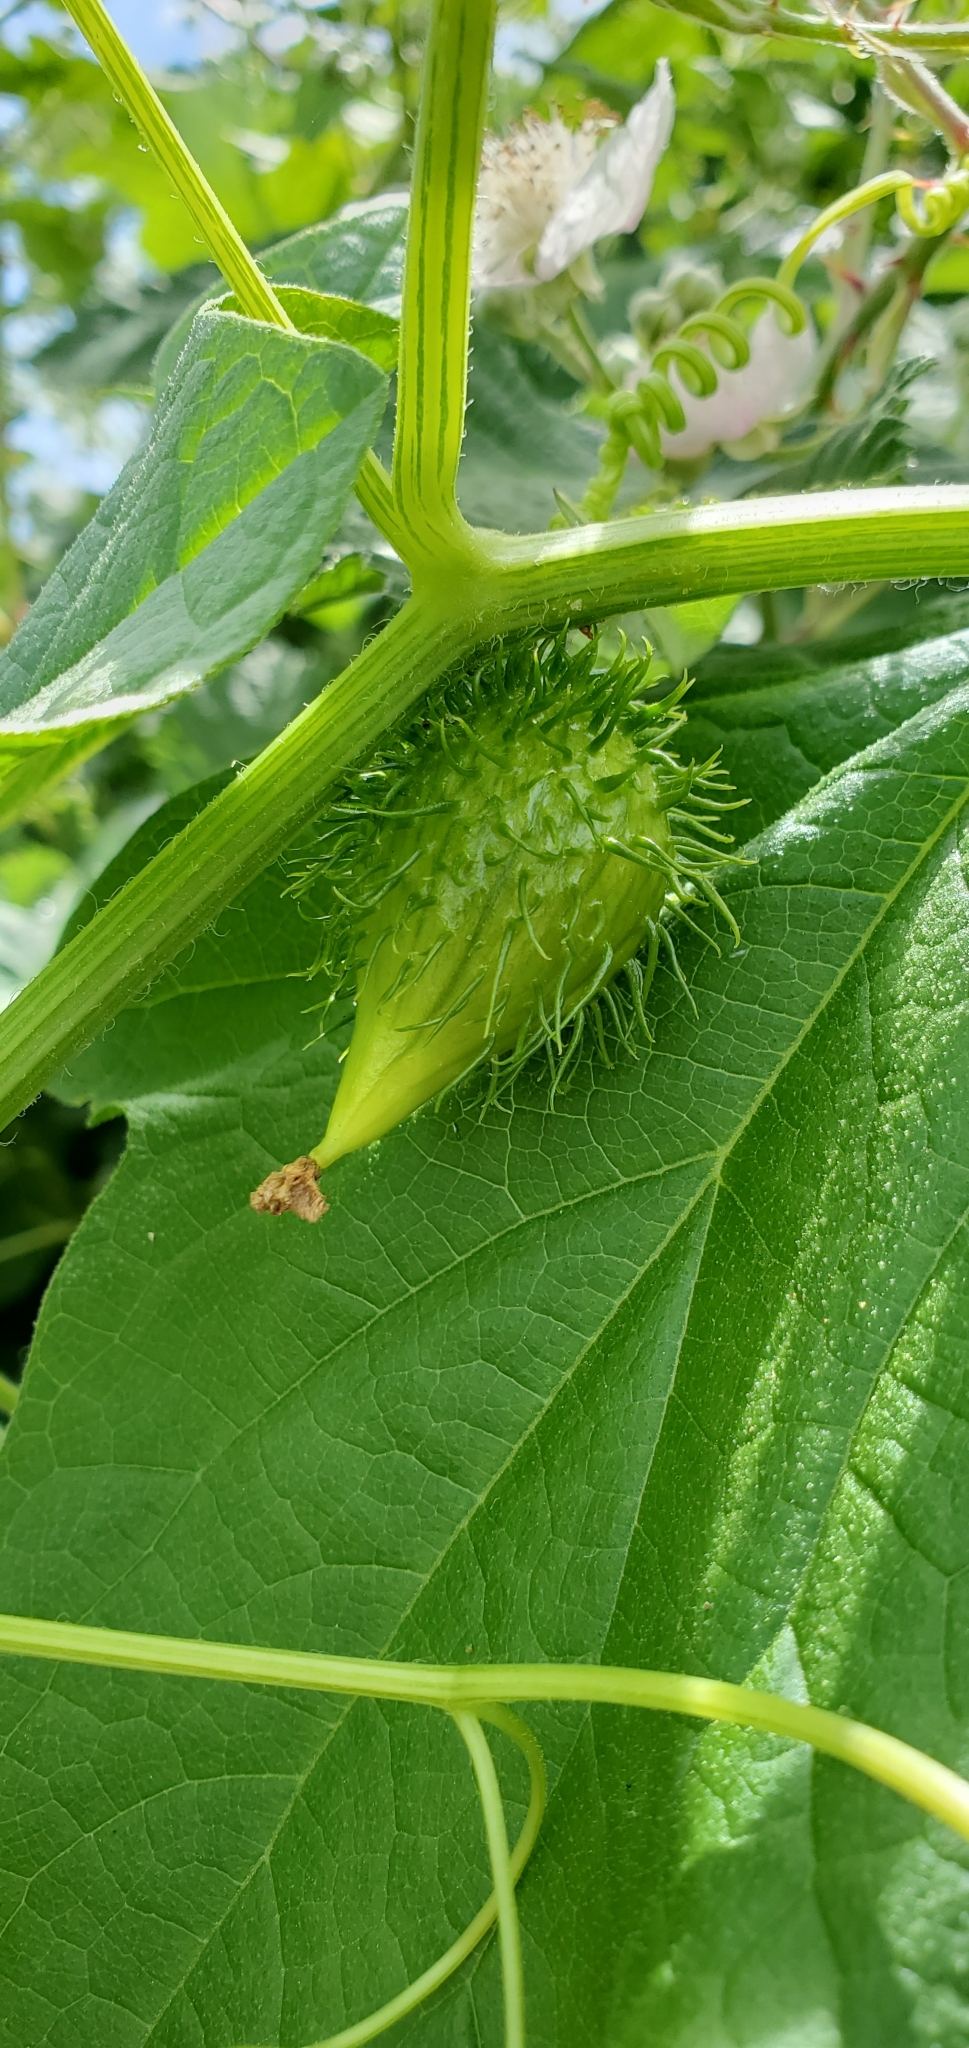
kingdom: Plantae
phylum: Tracheophyta
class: Magnoliopsida
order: Cucurbitales
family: Cucurbitaceae
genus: Marah
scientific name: Marah oregana
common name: Coastal manroot
